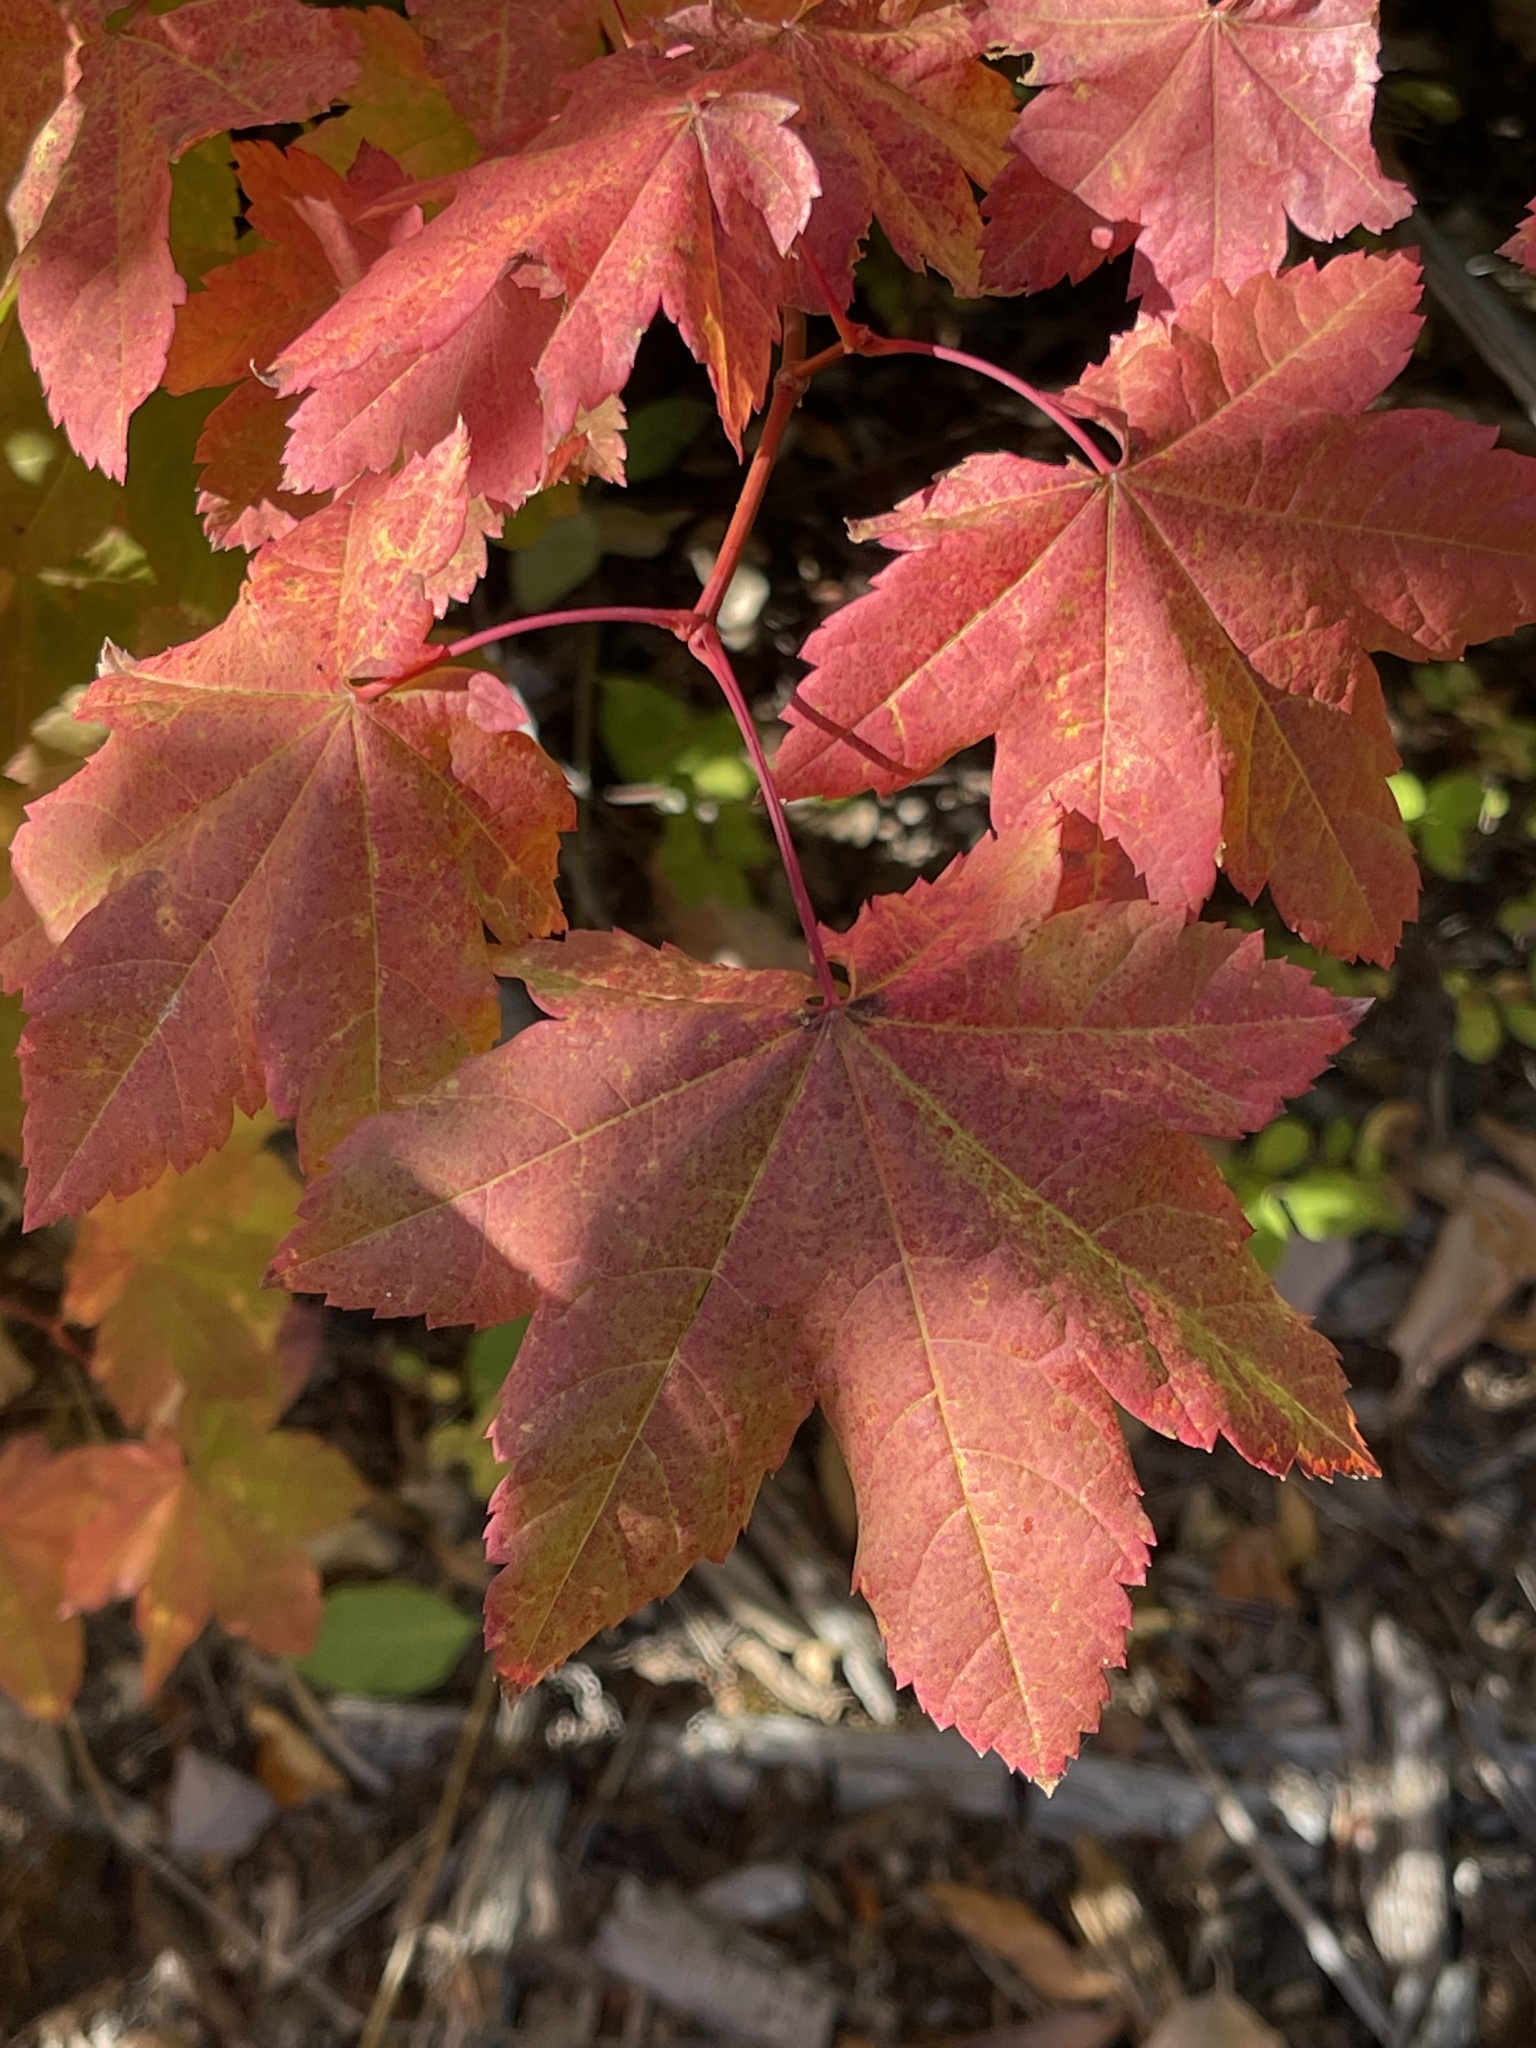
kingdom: Plantae
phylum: Tracheophyta
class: Magnoliopsida
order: Sapindales
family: Sapindaceae
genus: Acer
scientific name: Acer circinatum
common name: Vine maple
